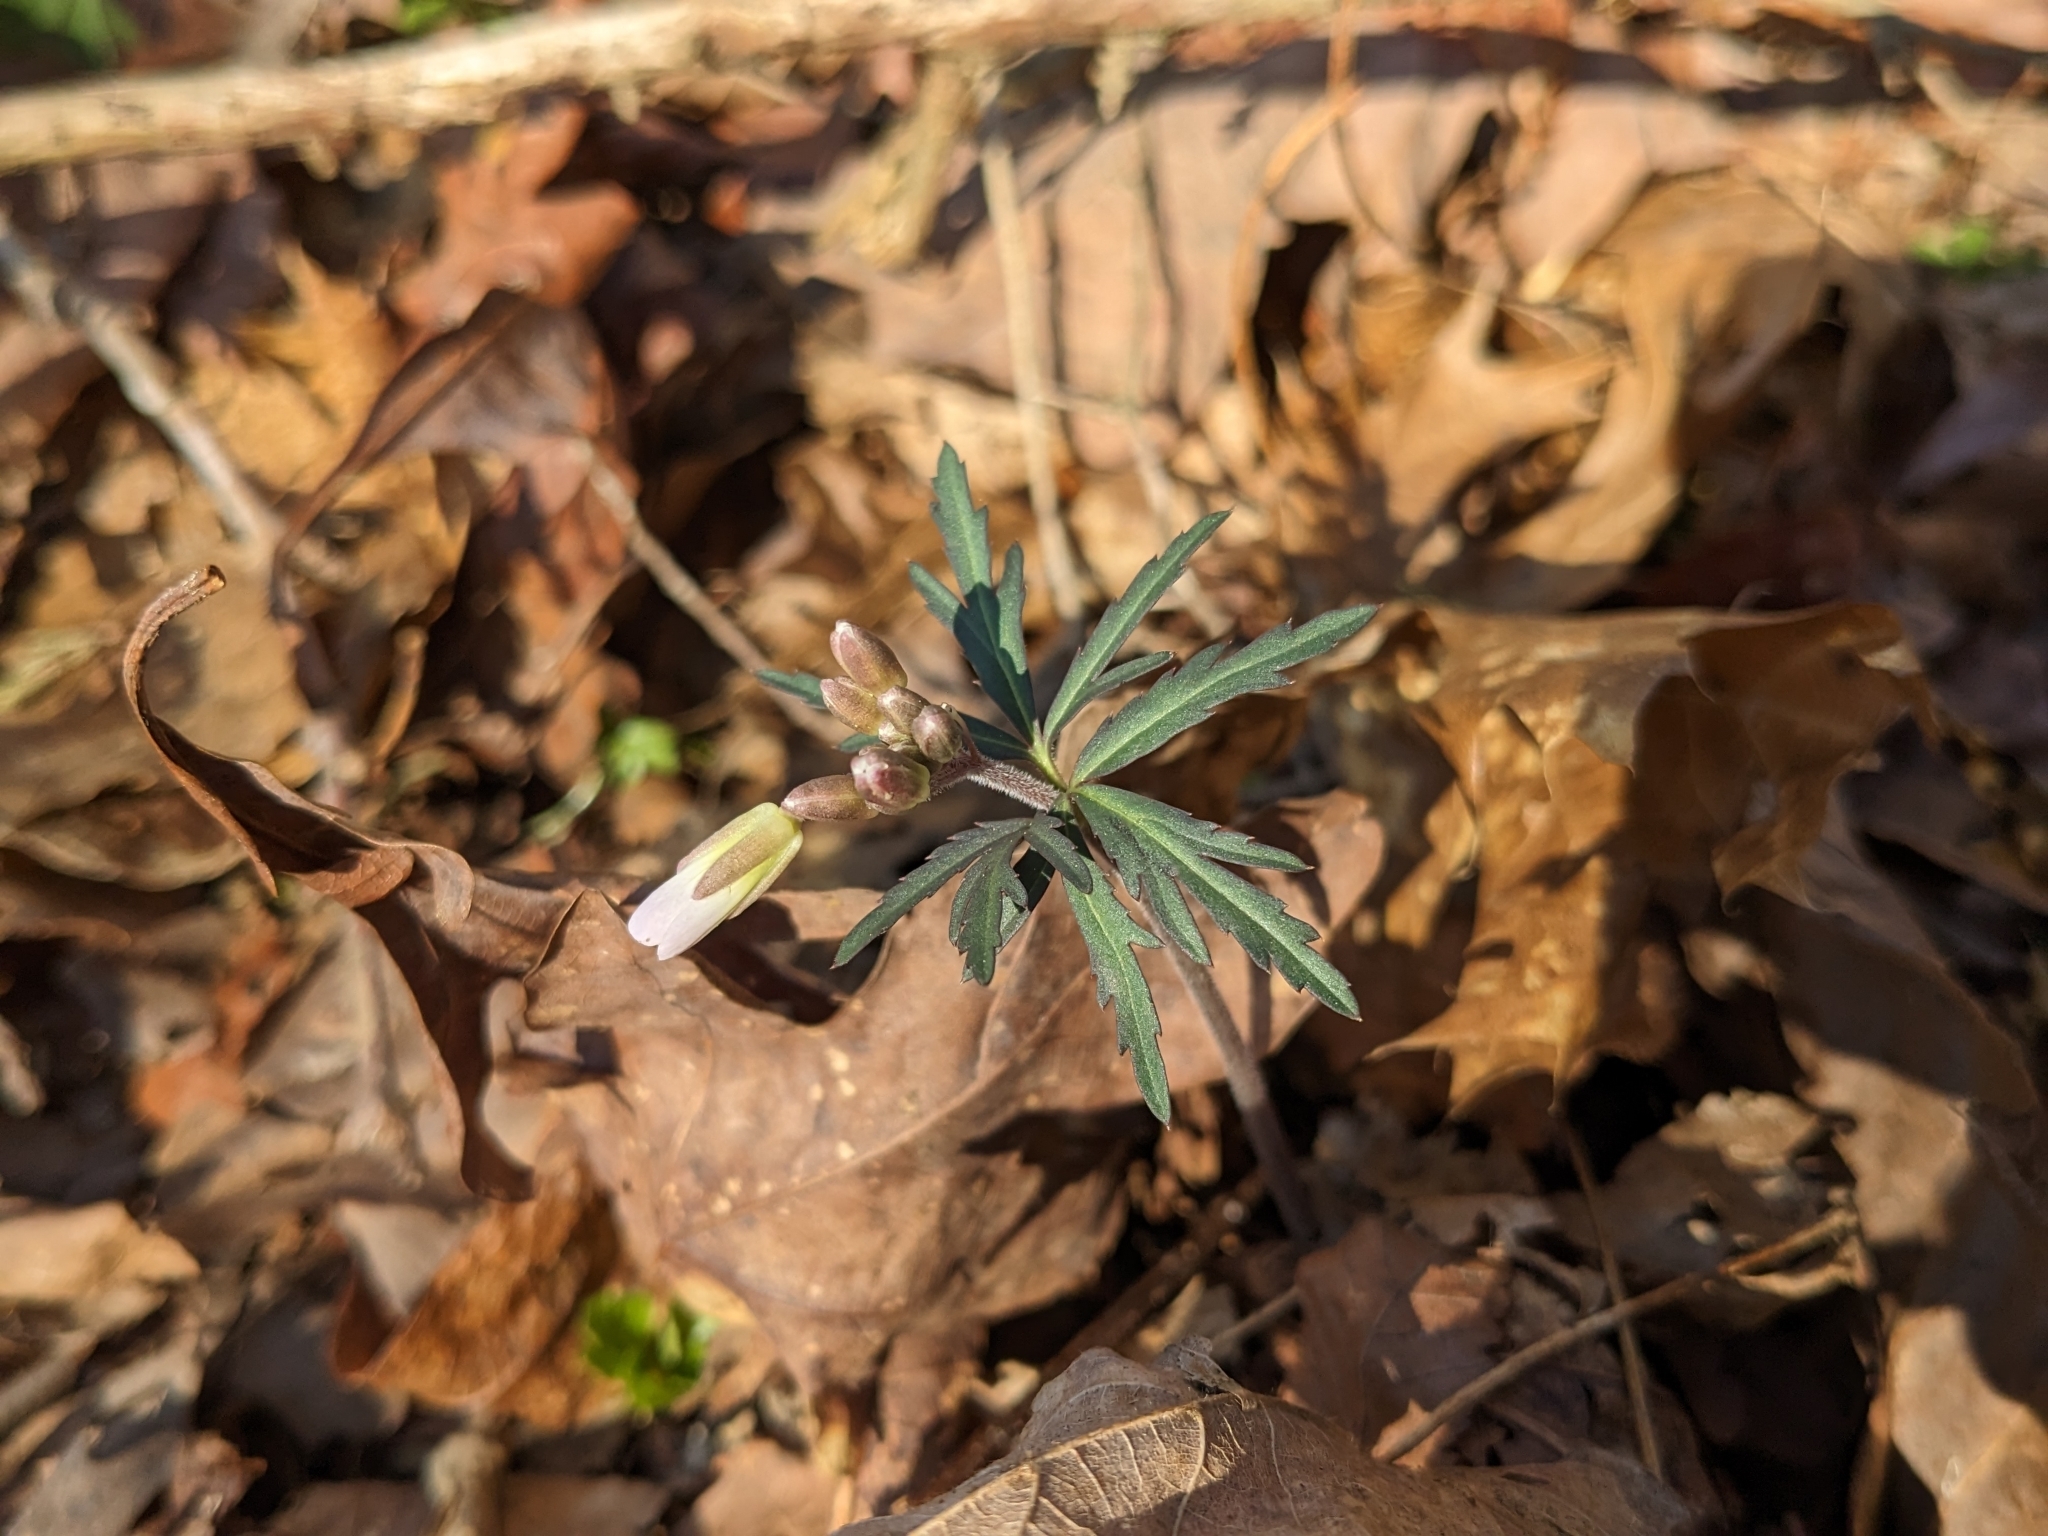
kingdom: Plantae
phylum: Tracheophyta
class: Magnoliopsida
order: Brassicales
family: Brassicaceae
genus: Cardamine
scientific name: Cardamine concatenata
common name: Cut-leaf toothcup
